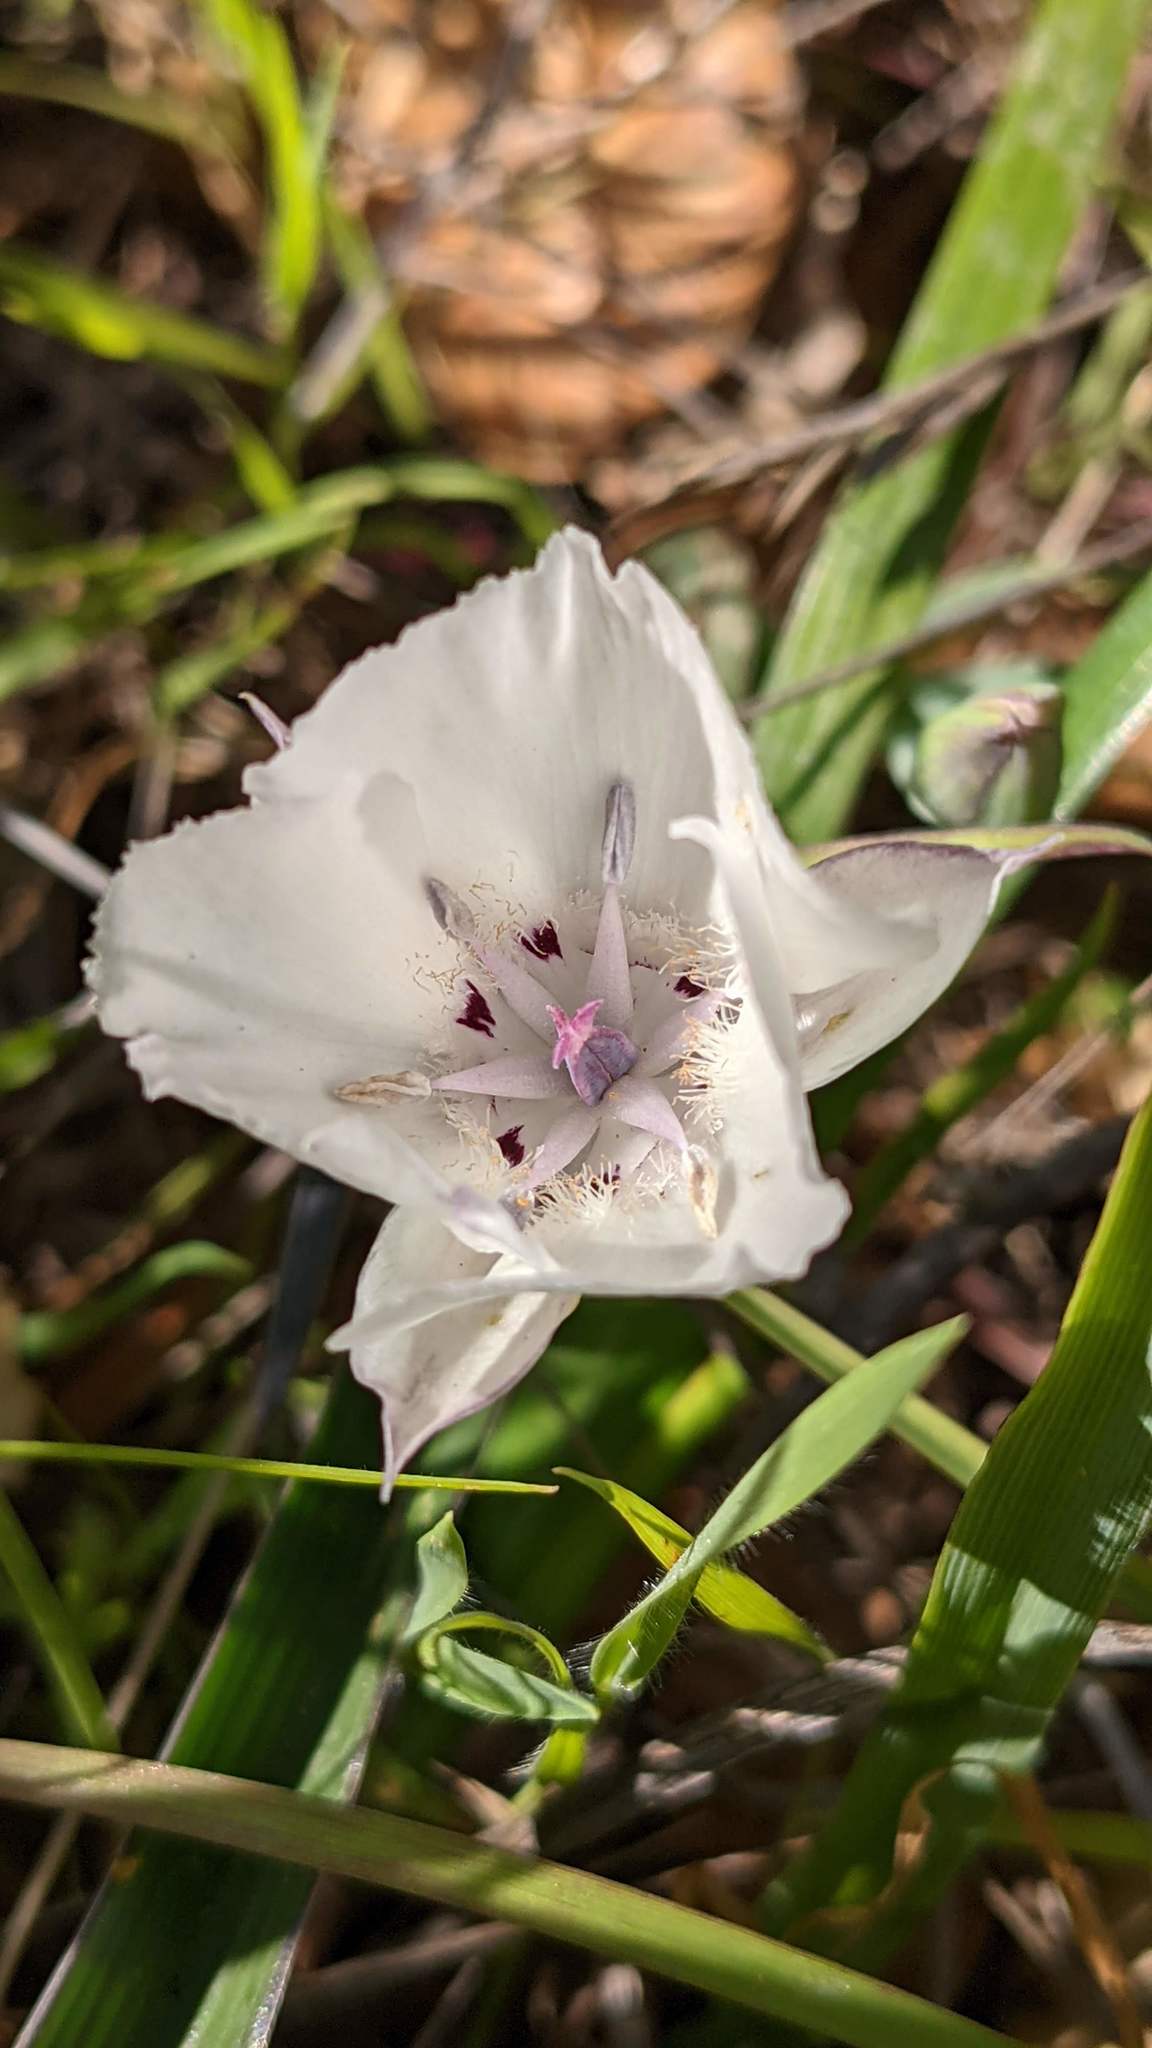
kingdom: Plantae
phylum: Tracheophyta
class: Liliopsida
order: Liliales
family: Liliaceae
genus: Calochortus
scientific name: Calochortus umbellatus
